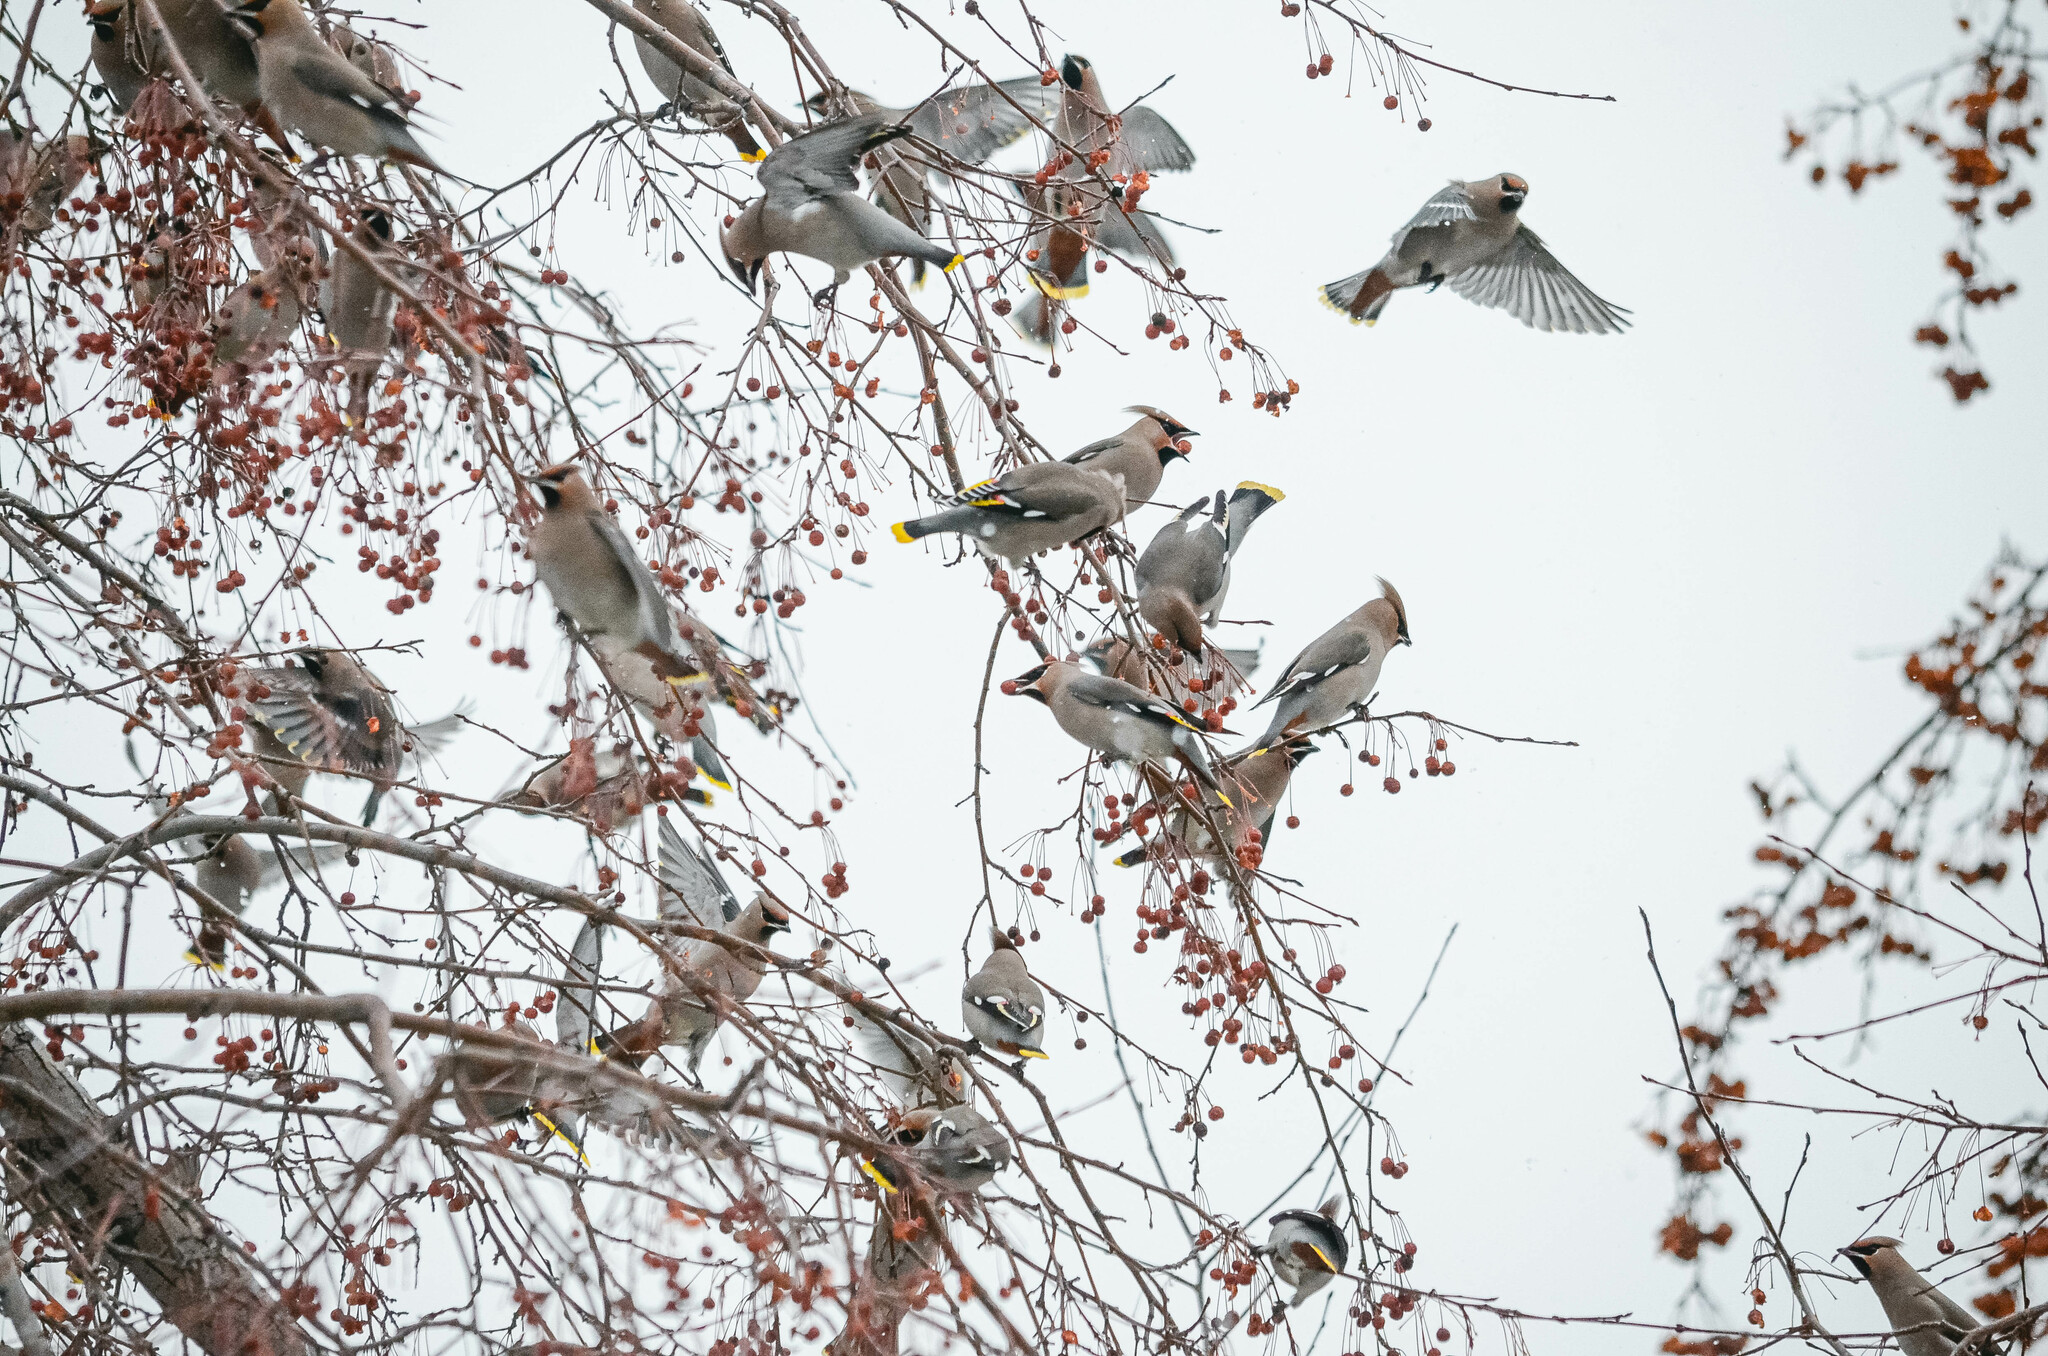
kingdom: Animalia
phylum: Chordata
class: Aves
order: Passeriformes
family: Bombycillidae
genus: Bombycilla
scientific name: Bombycilla garrulus
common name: Bohemian waxwing
